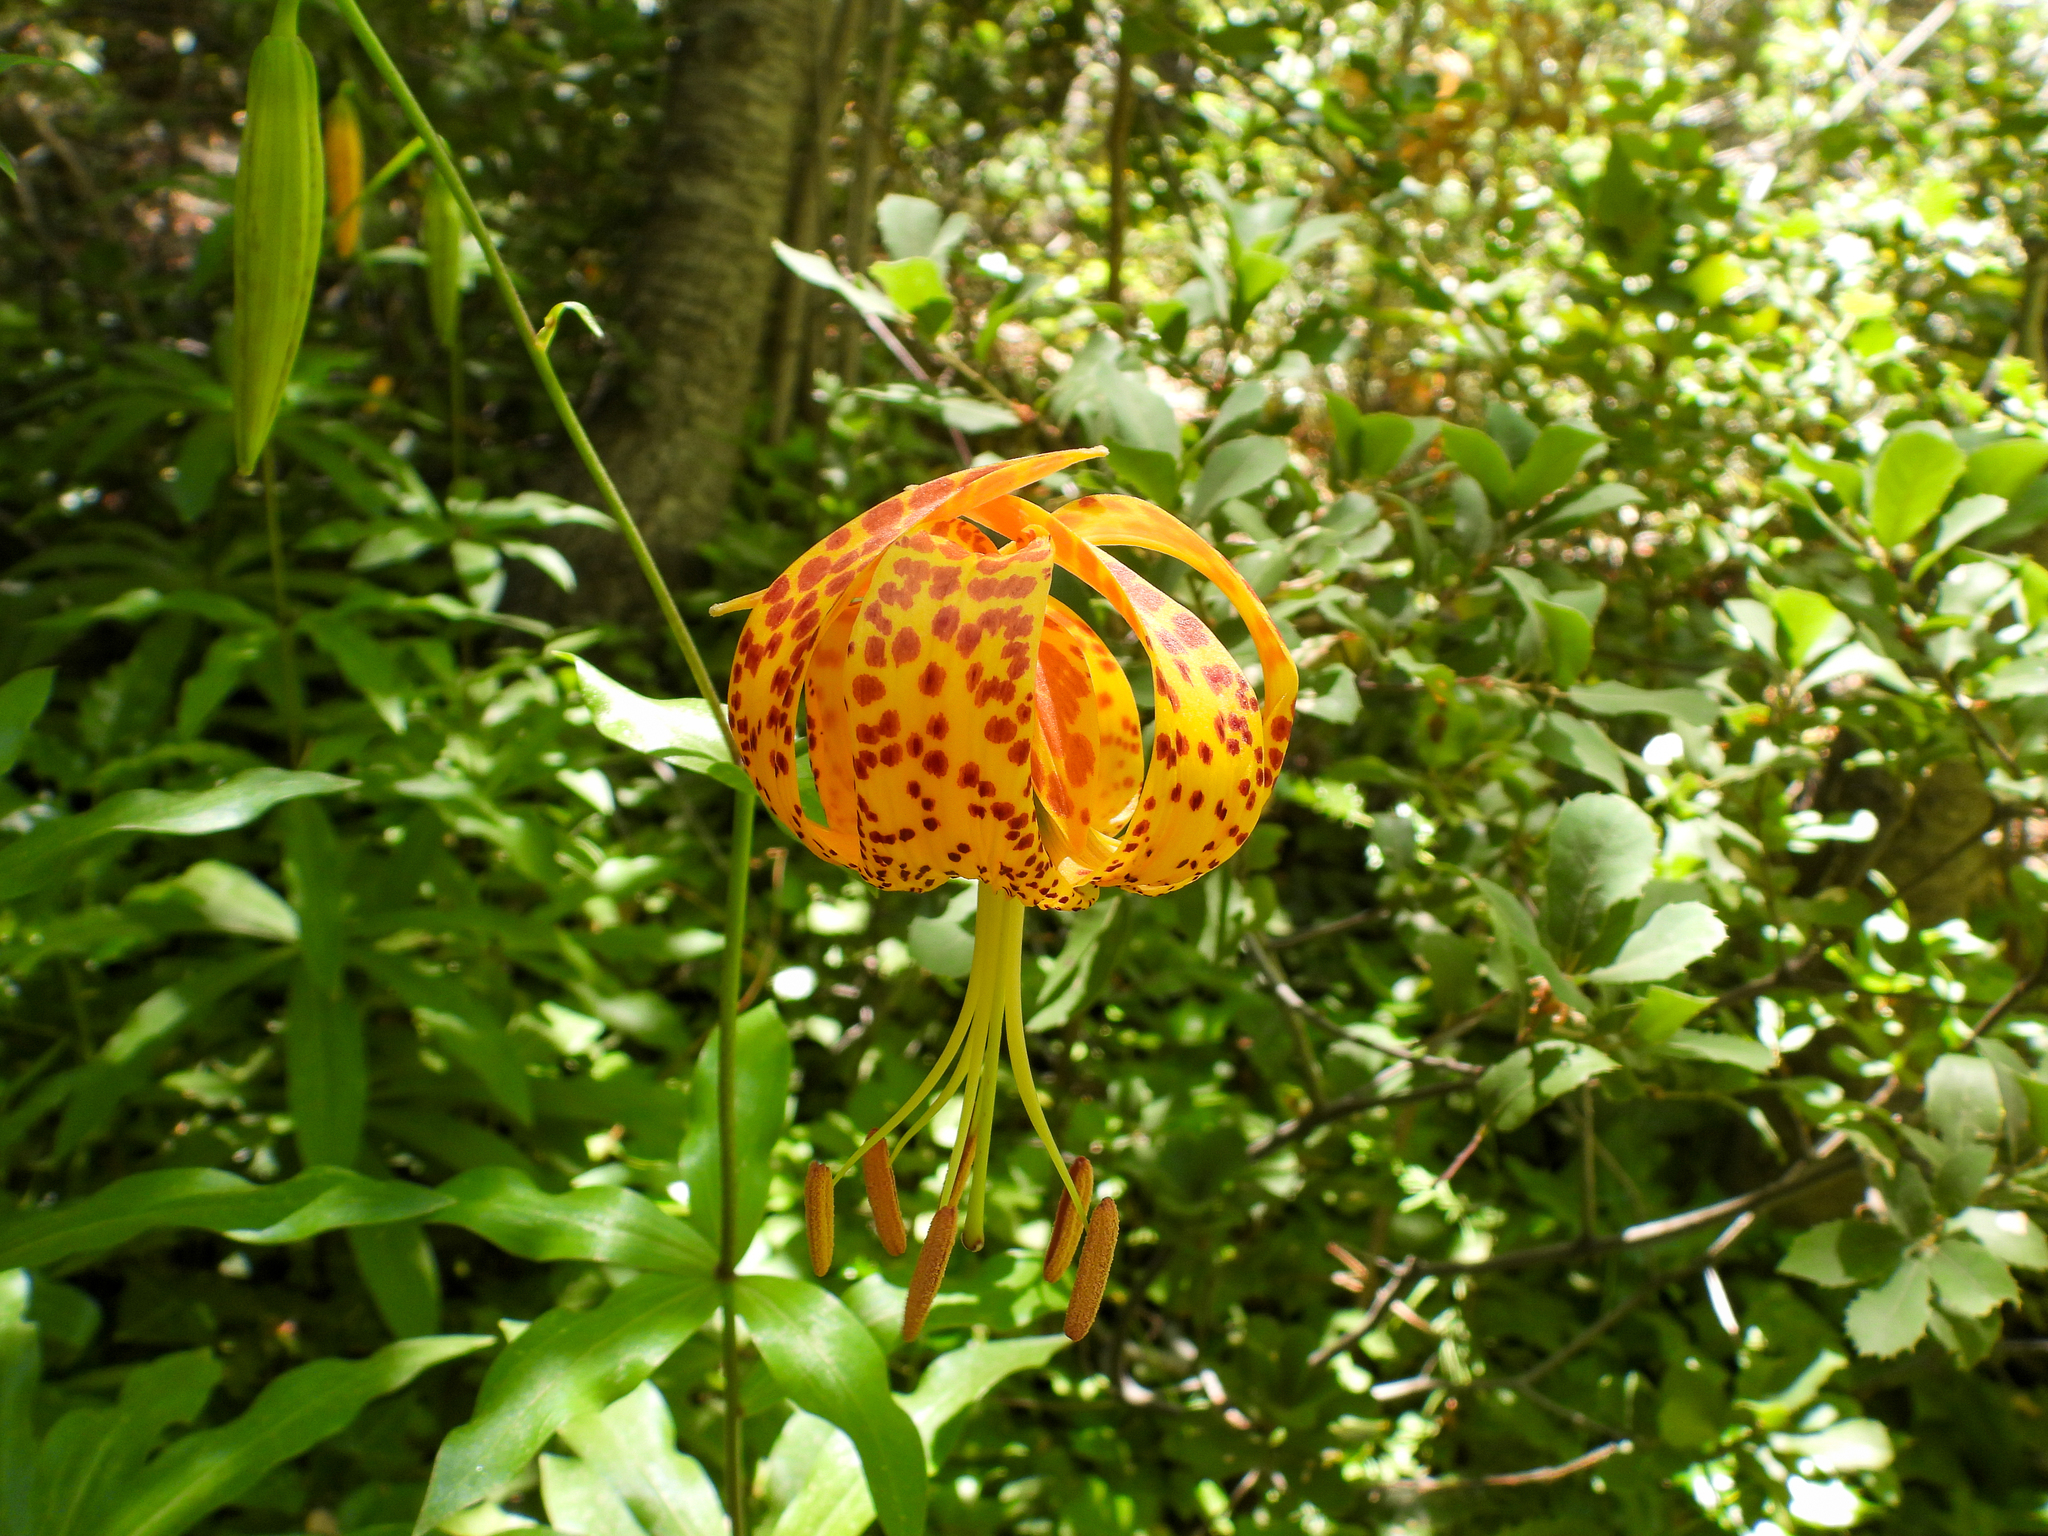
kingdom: Plantae
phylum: Tracheophyta
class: Liliopsida
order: Liliales
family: Liliaceae
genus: Lilium
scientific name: Lilium humboldtii
